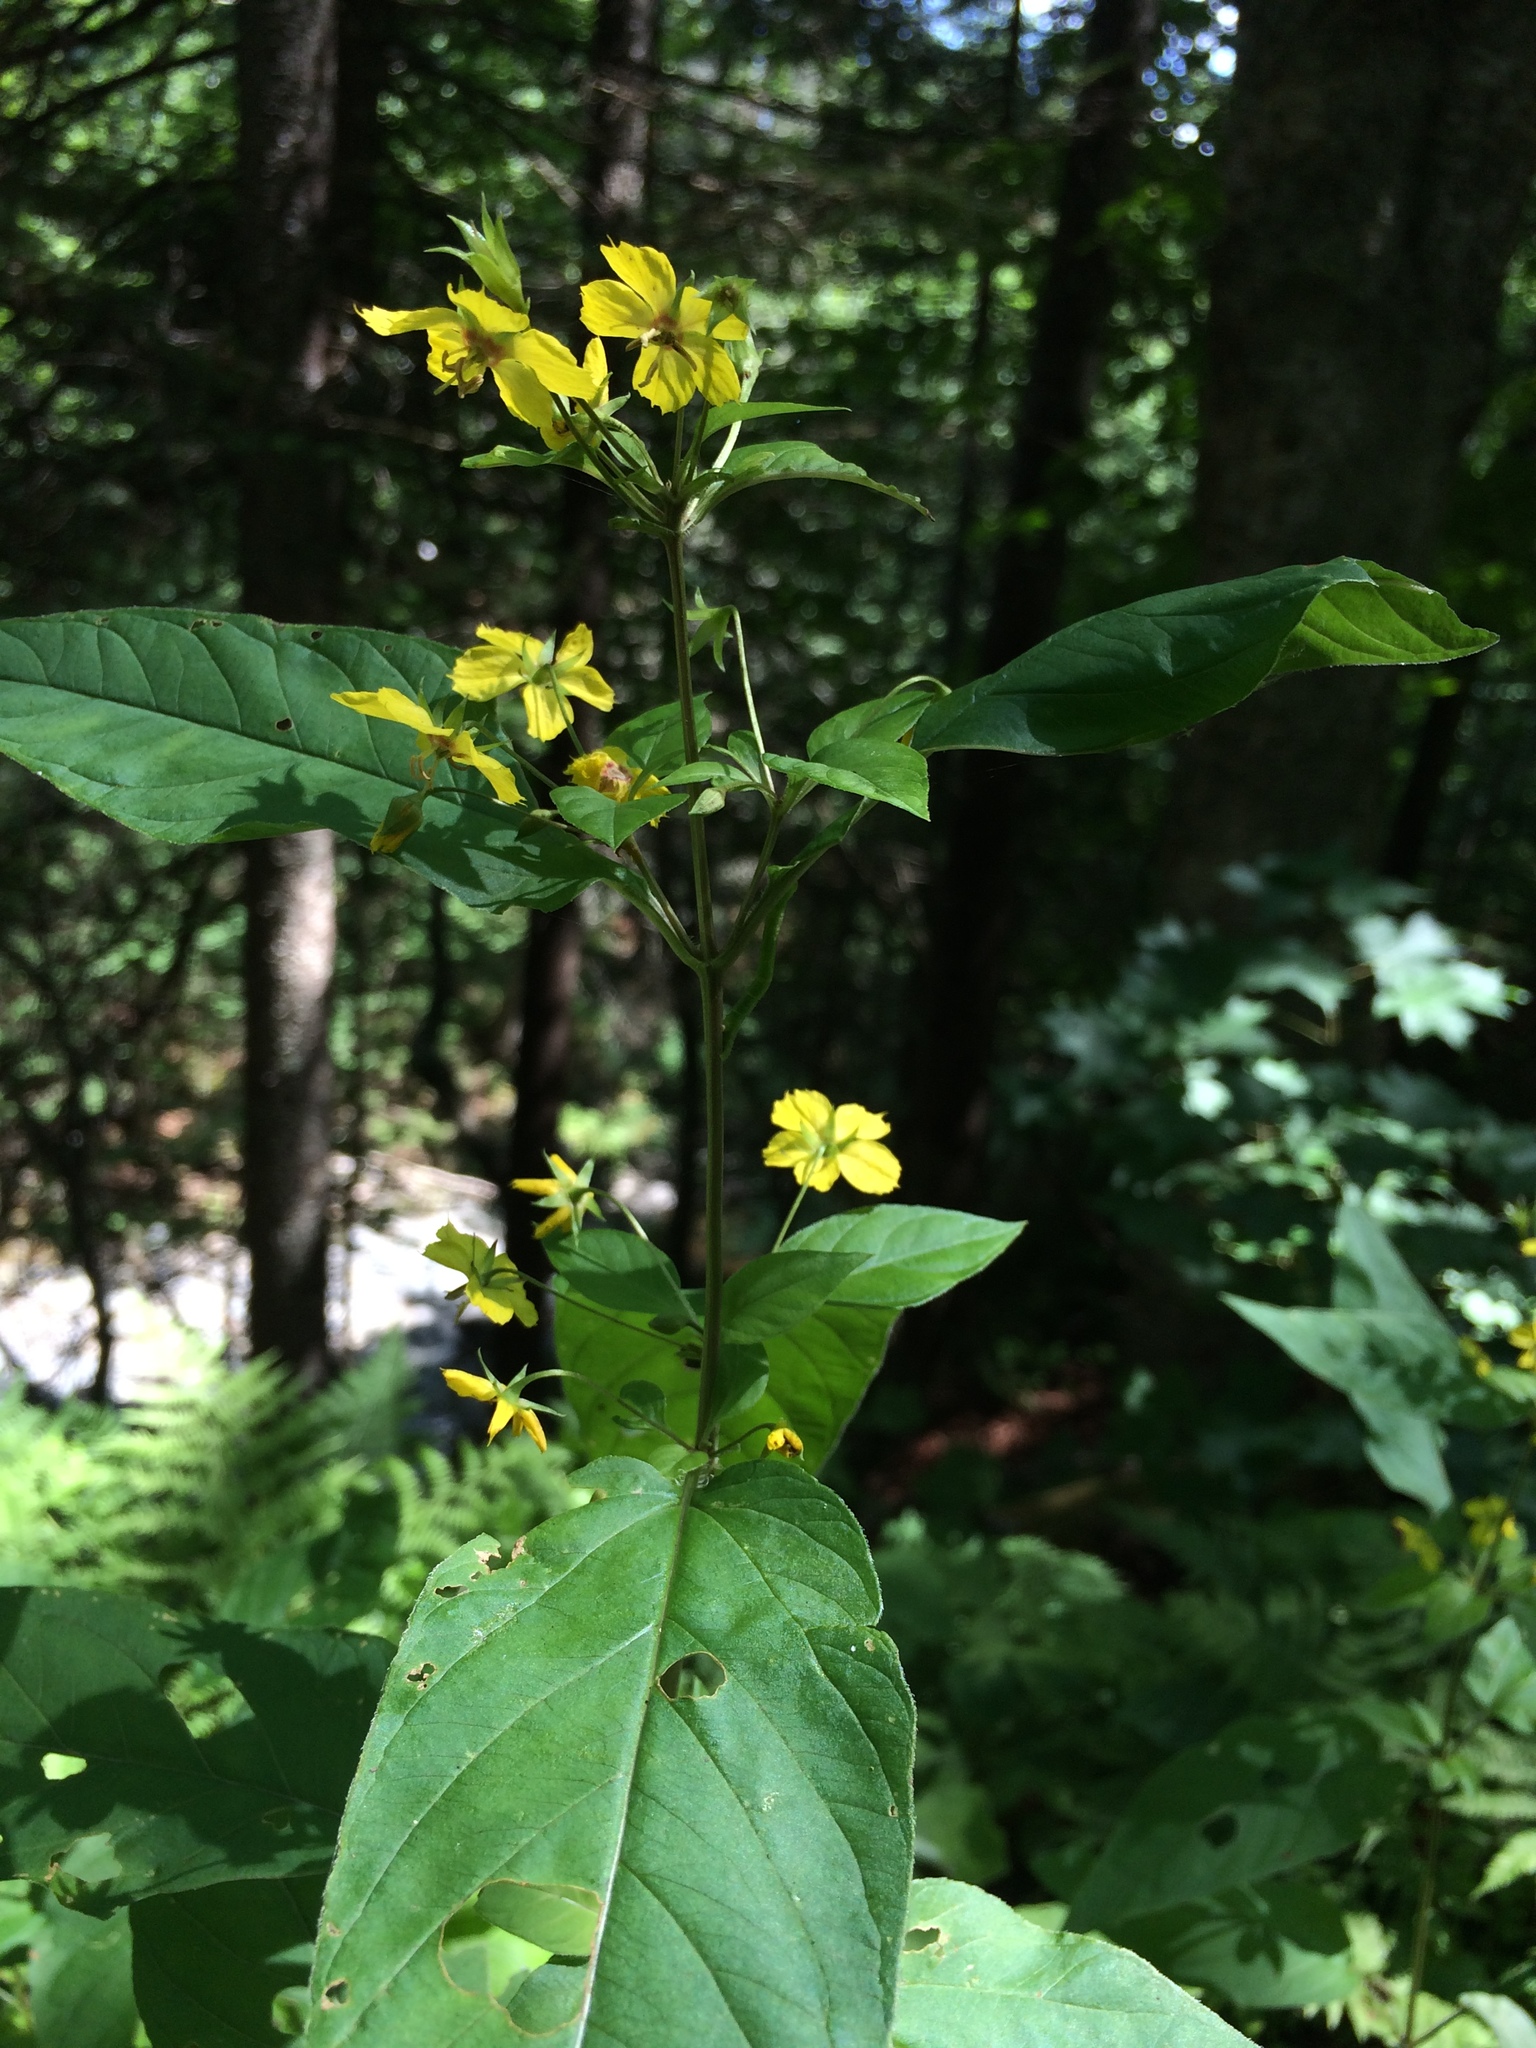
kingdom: Plantae
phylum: Tracheophyta
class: Magnoliopsida
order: Ericales
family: Primulaceae
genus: Lysimachia
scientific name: Lysimachia ciliata
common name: Fringed loosestrife
